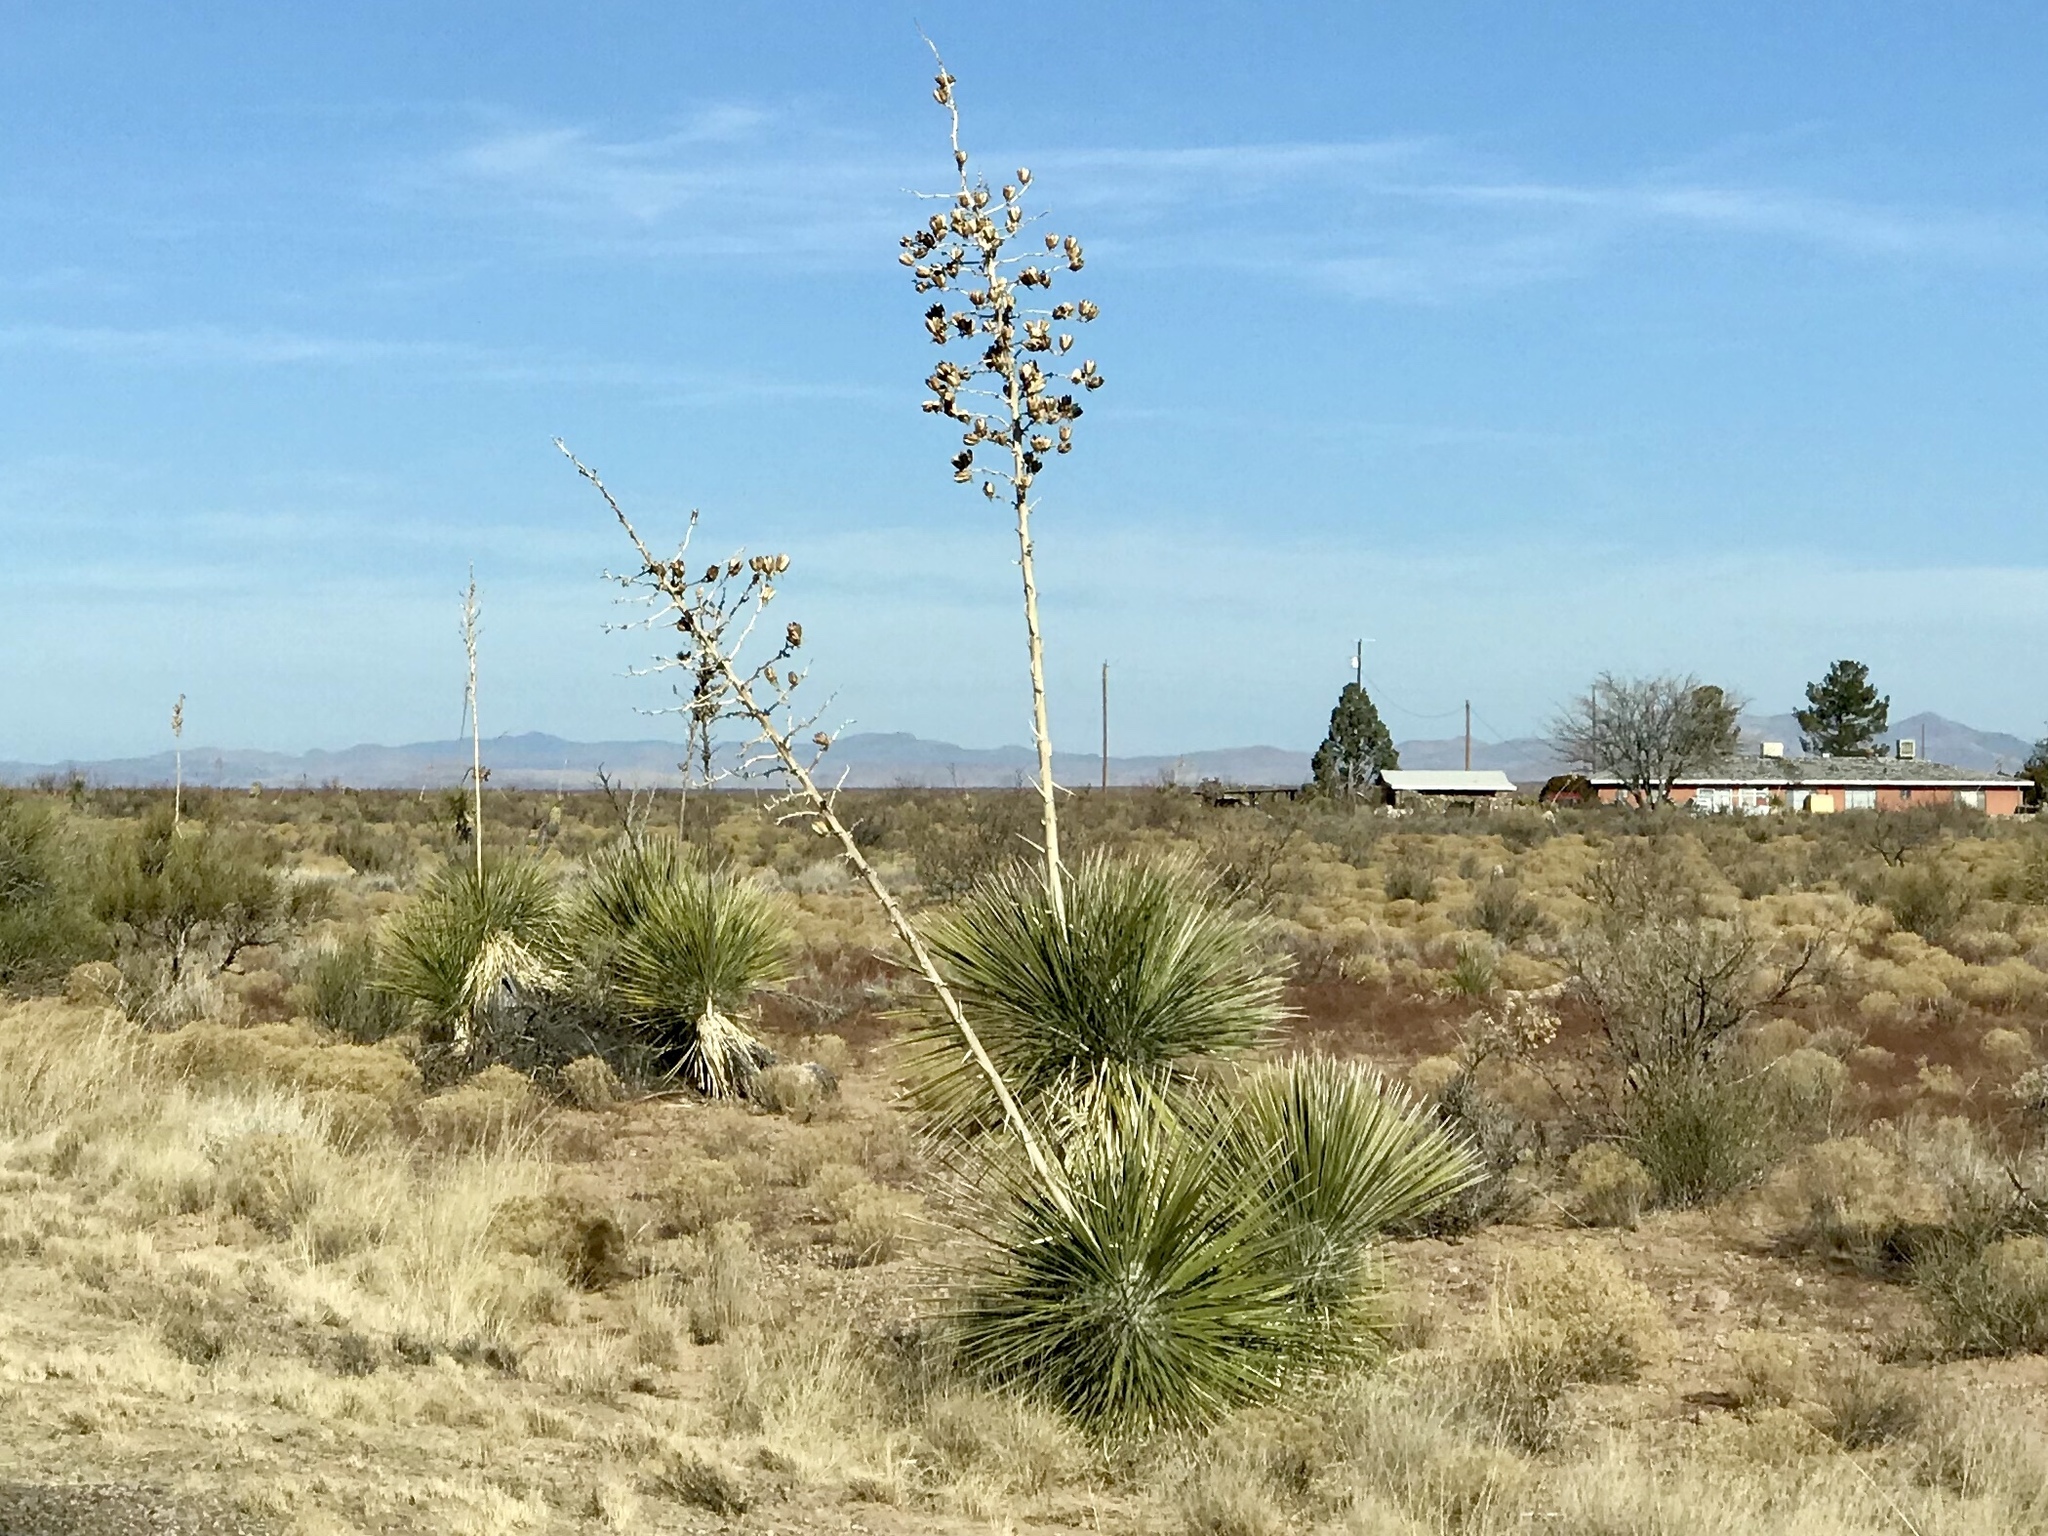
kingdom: Plantae
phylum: Tracheophyta
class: Liliopsida
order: Asparagales
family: Asparagaceae
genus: Yucca
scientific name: Yucca elata
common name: Palmella
